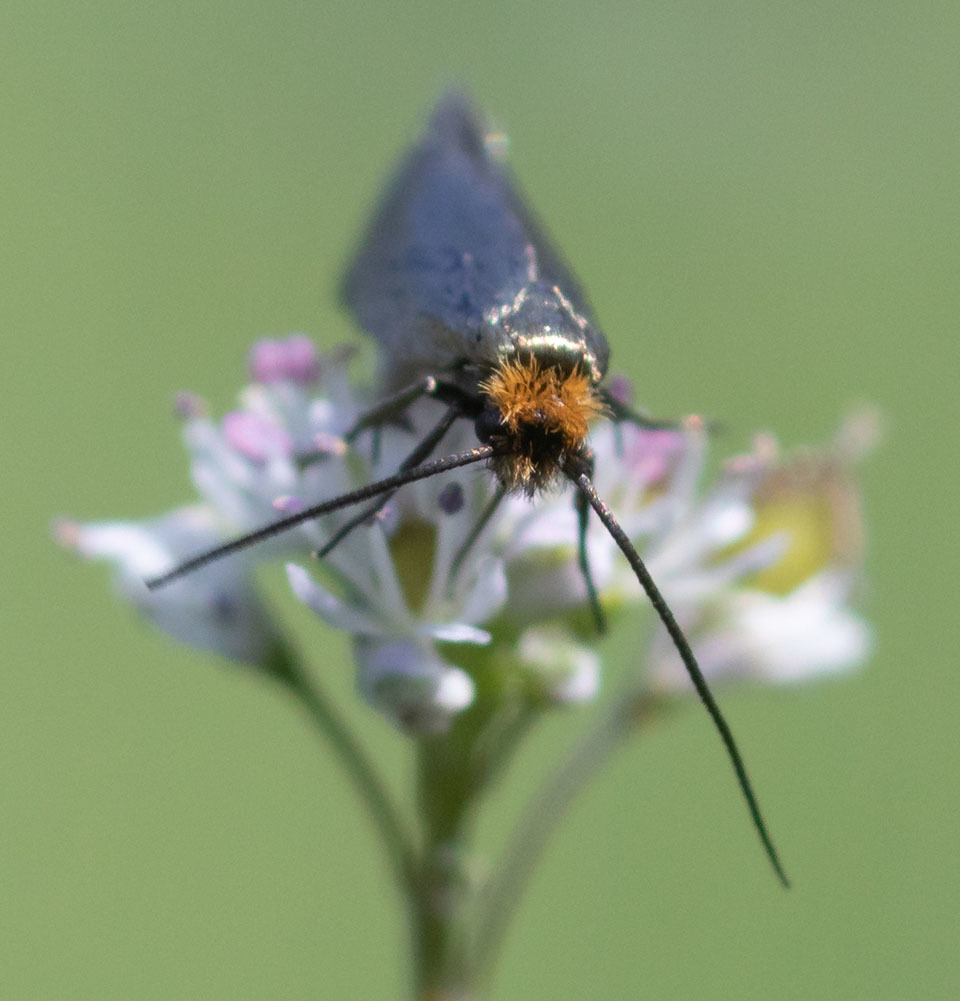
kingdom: Animalia
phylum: Arthropoda
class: Insecta
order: Lepidoptera
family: Adelidae
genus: Cauchas
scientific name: Cauchas simpliciella
